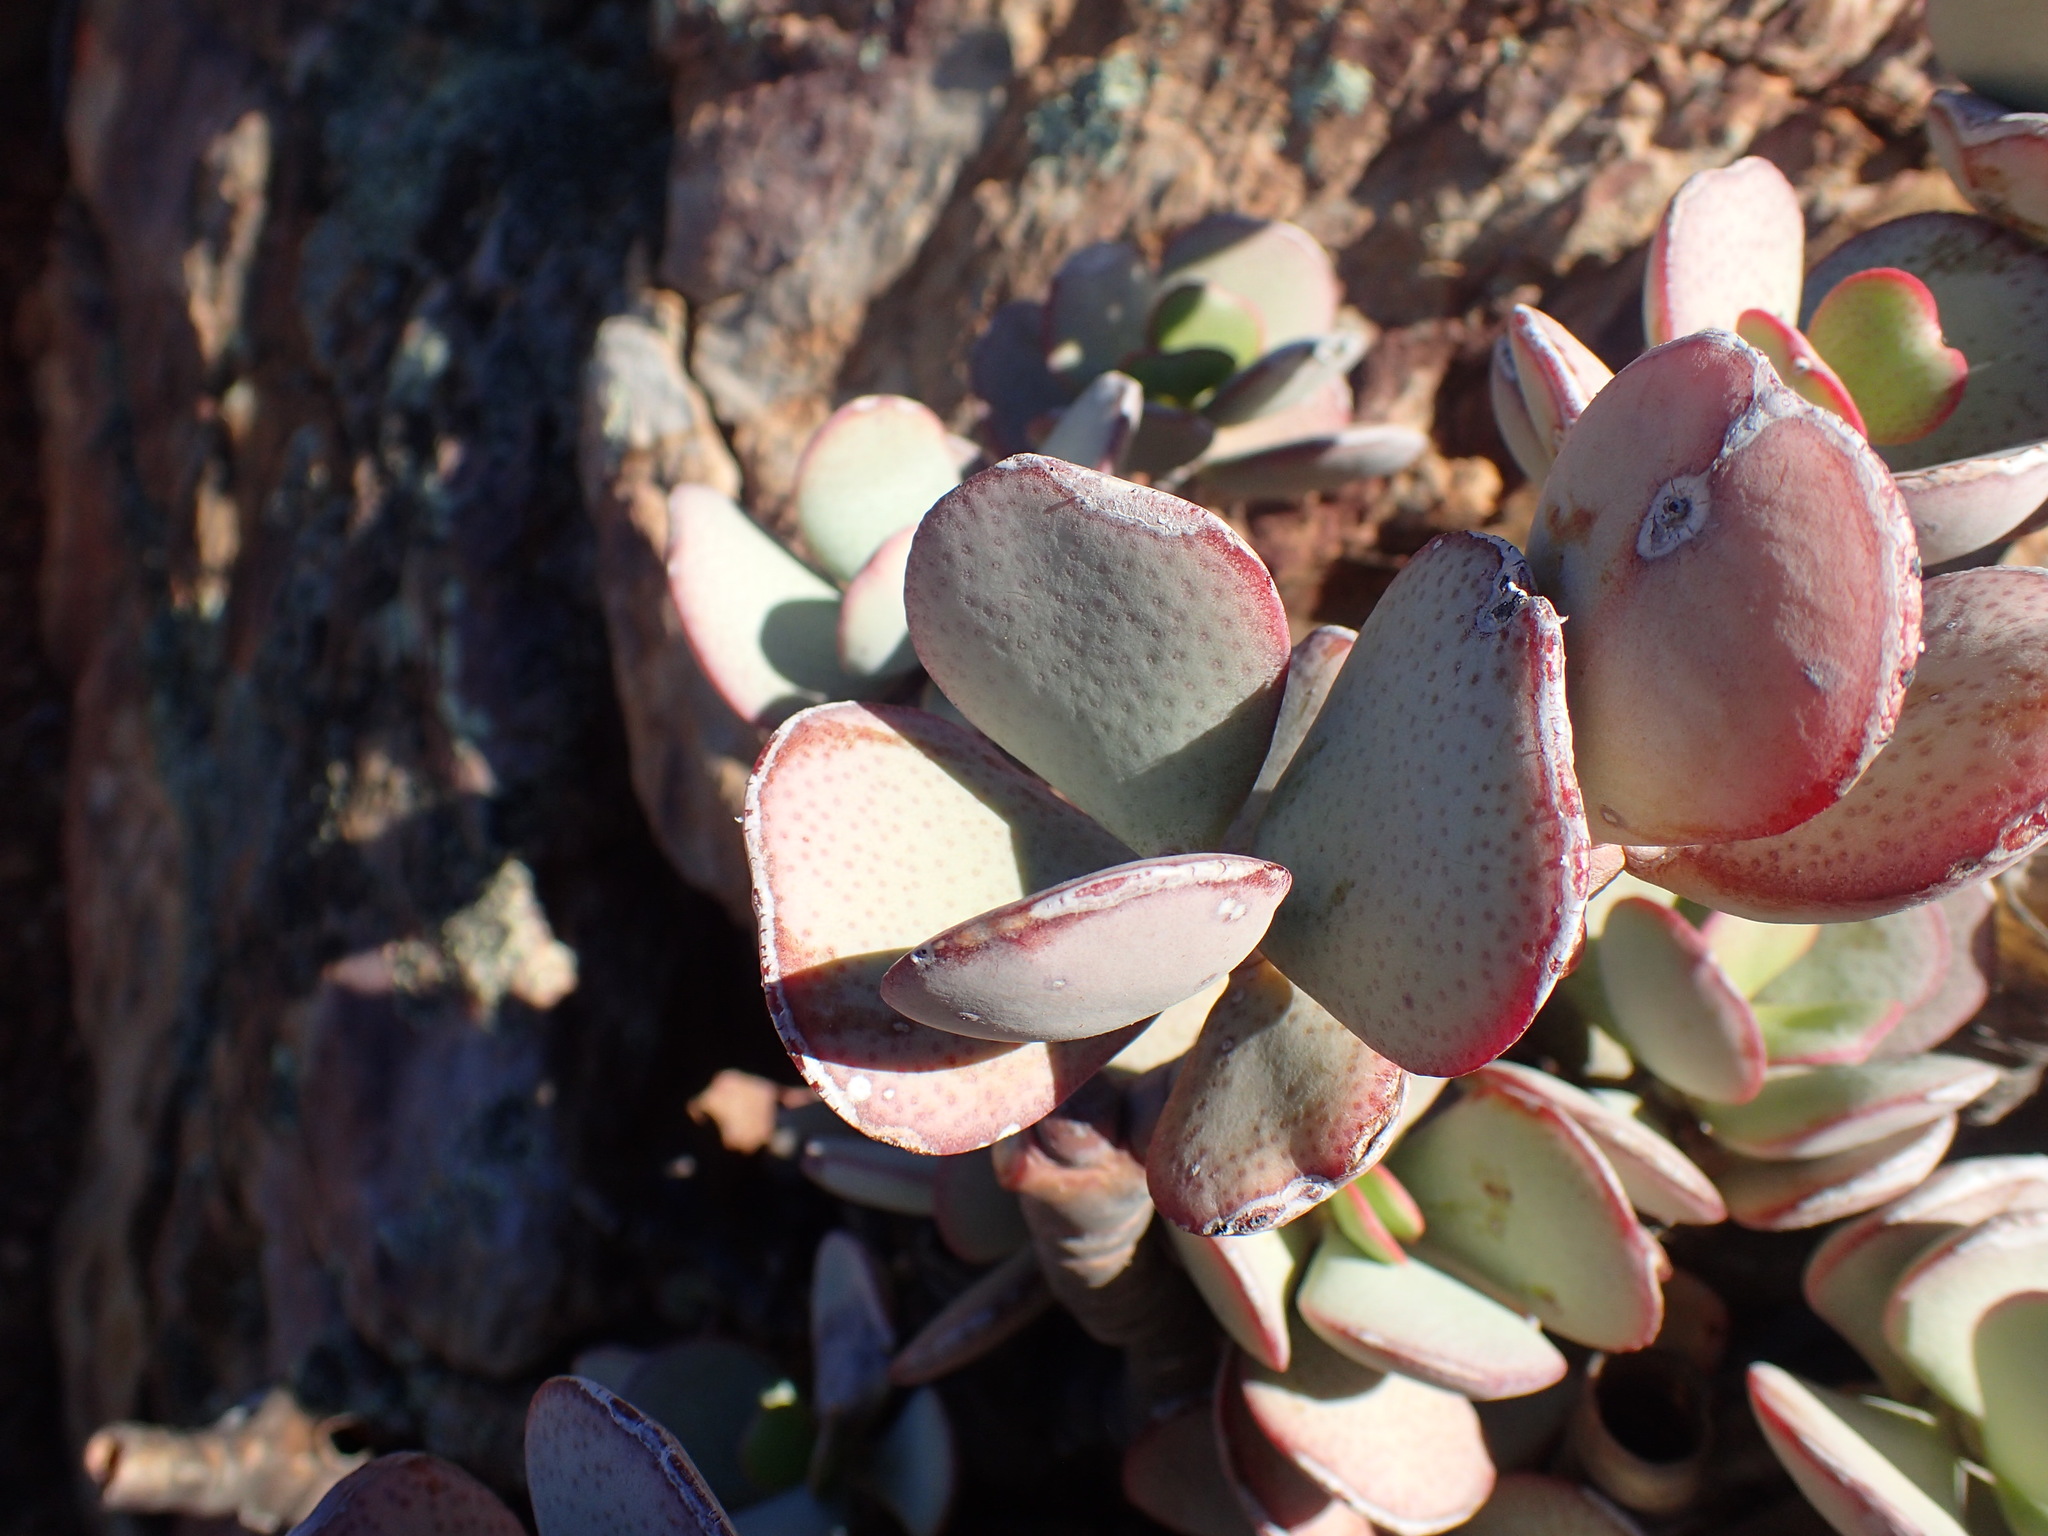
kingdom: Plantae
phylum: Tracheophyta
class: Magnoliopsida
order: Saxifragales
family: Crassulaceae
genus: Crassula
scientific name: Crassula arborescens
